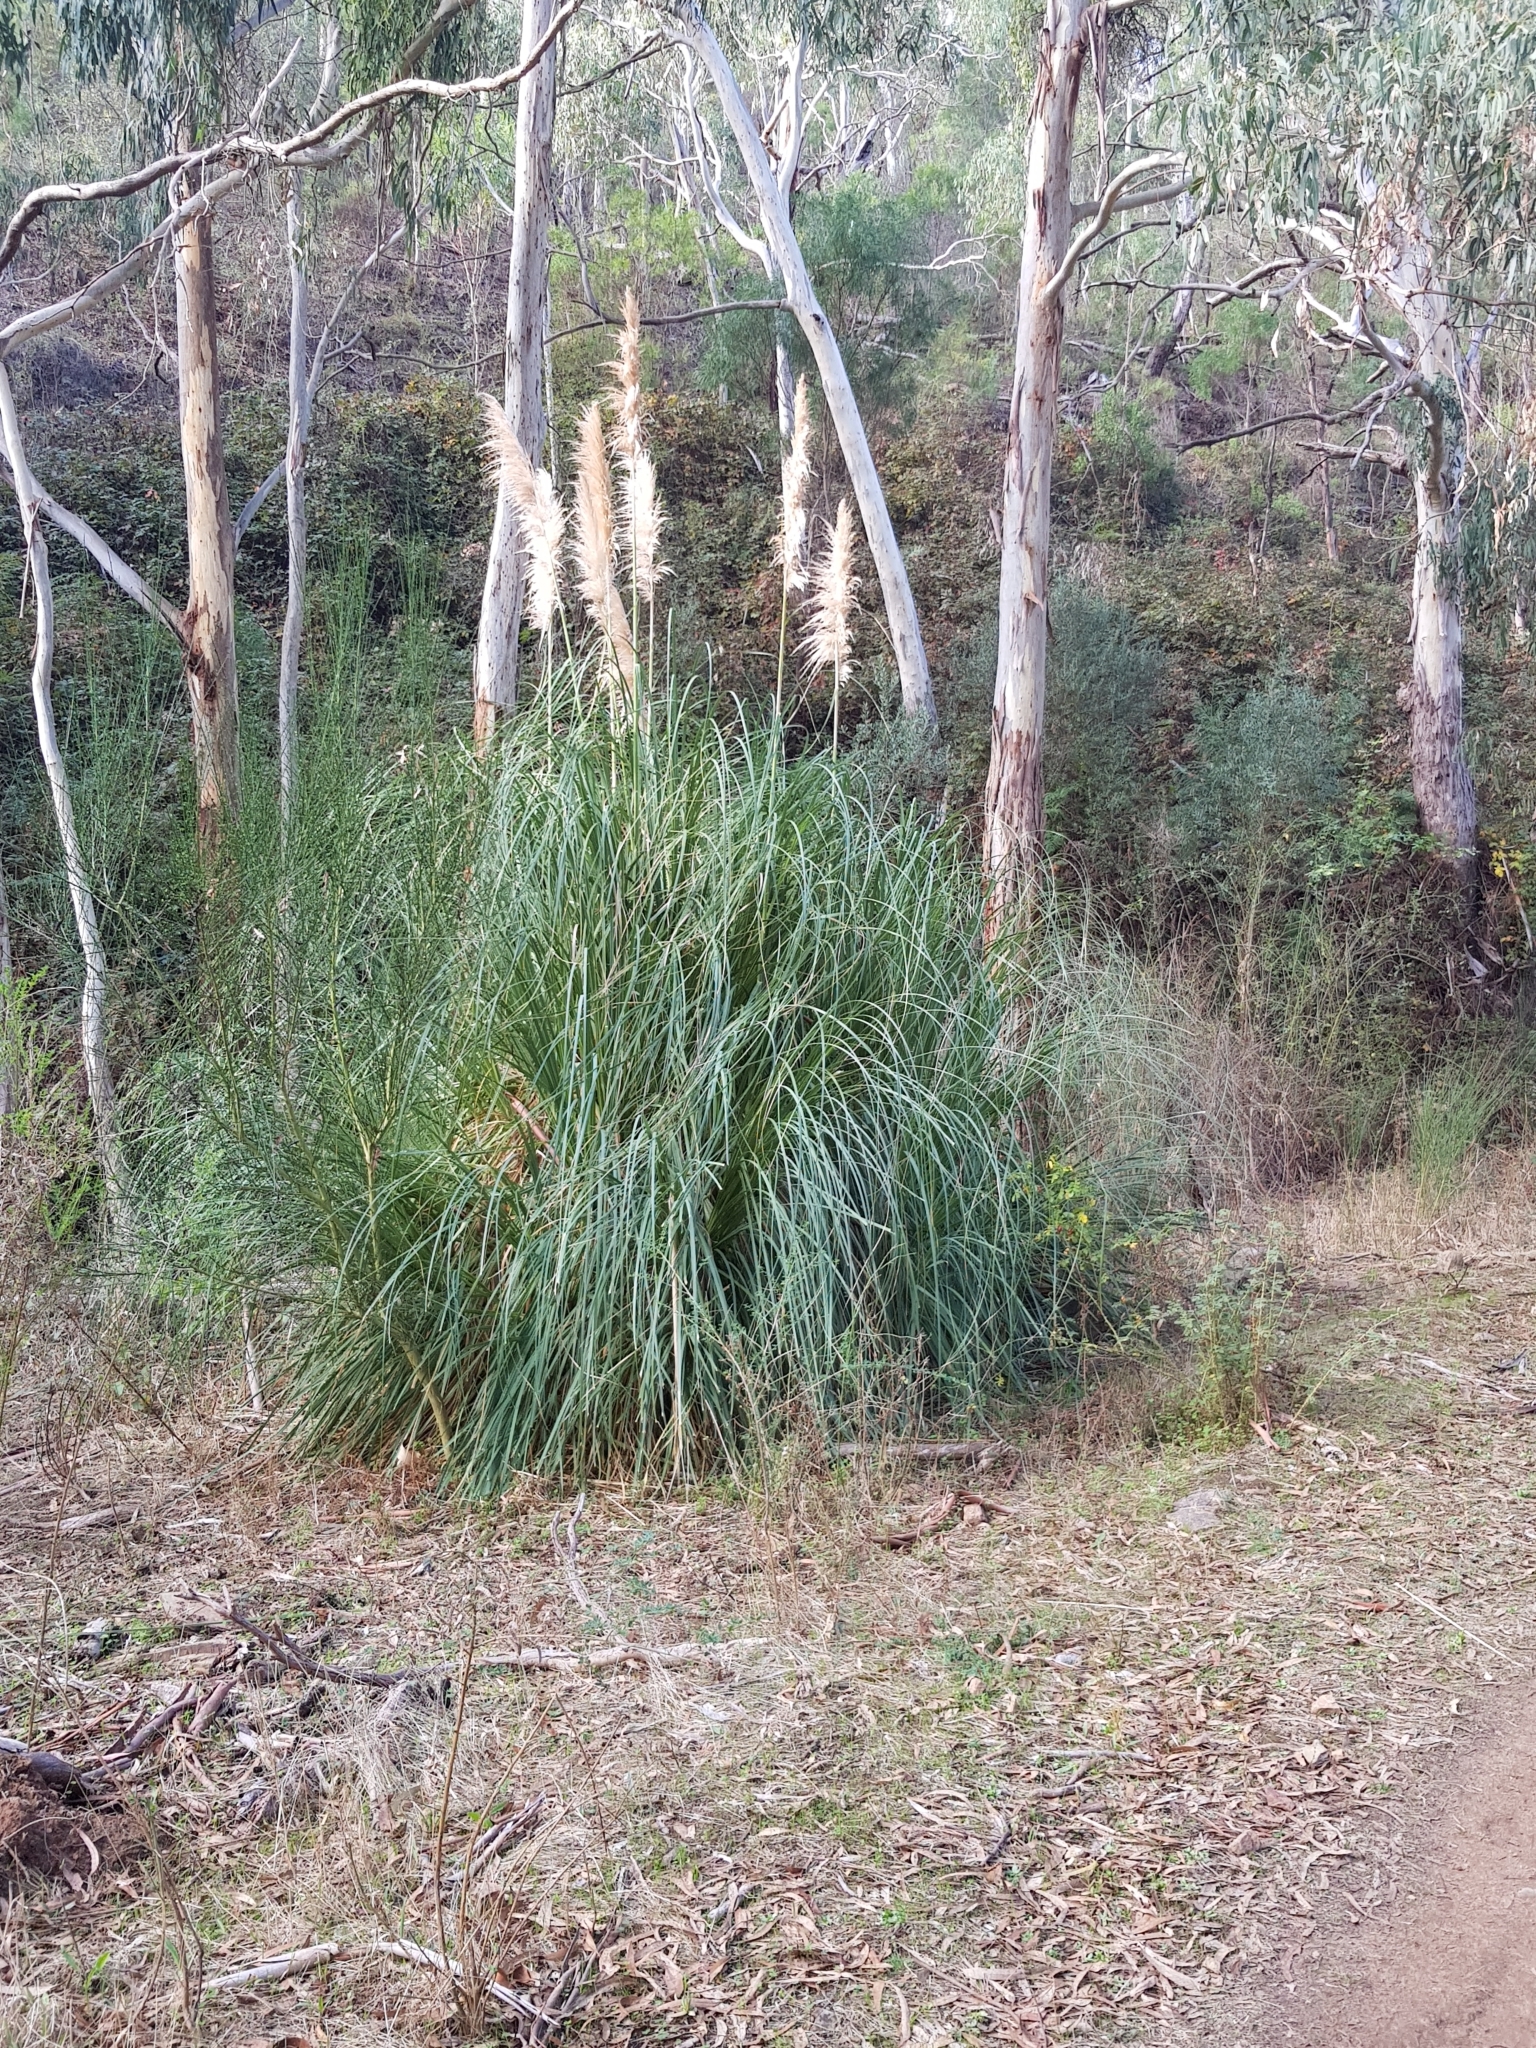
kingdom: Plantae
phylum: Tracheophyta
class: Liliopsida
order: Poales
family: Poaceae
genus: Cortaderia
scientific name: Cortaderia selloana
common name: Uruguayan pampas grass
